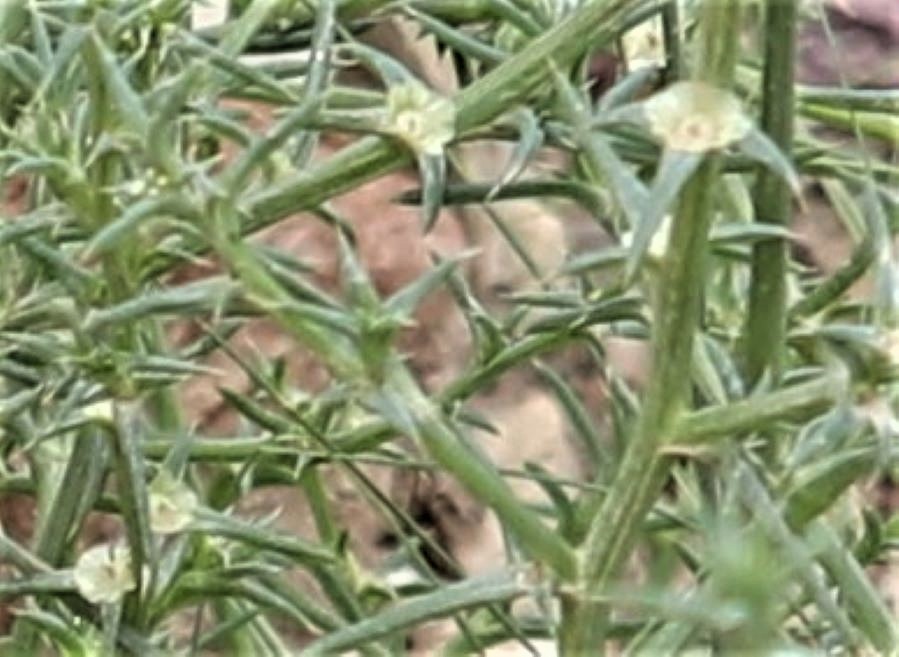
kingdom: Plantae
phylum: Tracheophyta
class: Magnoliopsida
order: Caryophyllales
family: Amaranthaceae
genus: Salsola
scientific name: Salsola kali
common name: Saltwort
